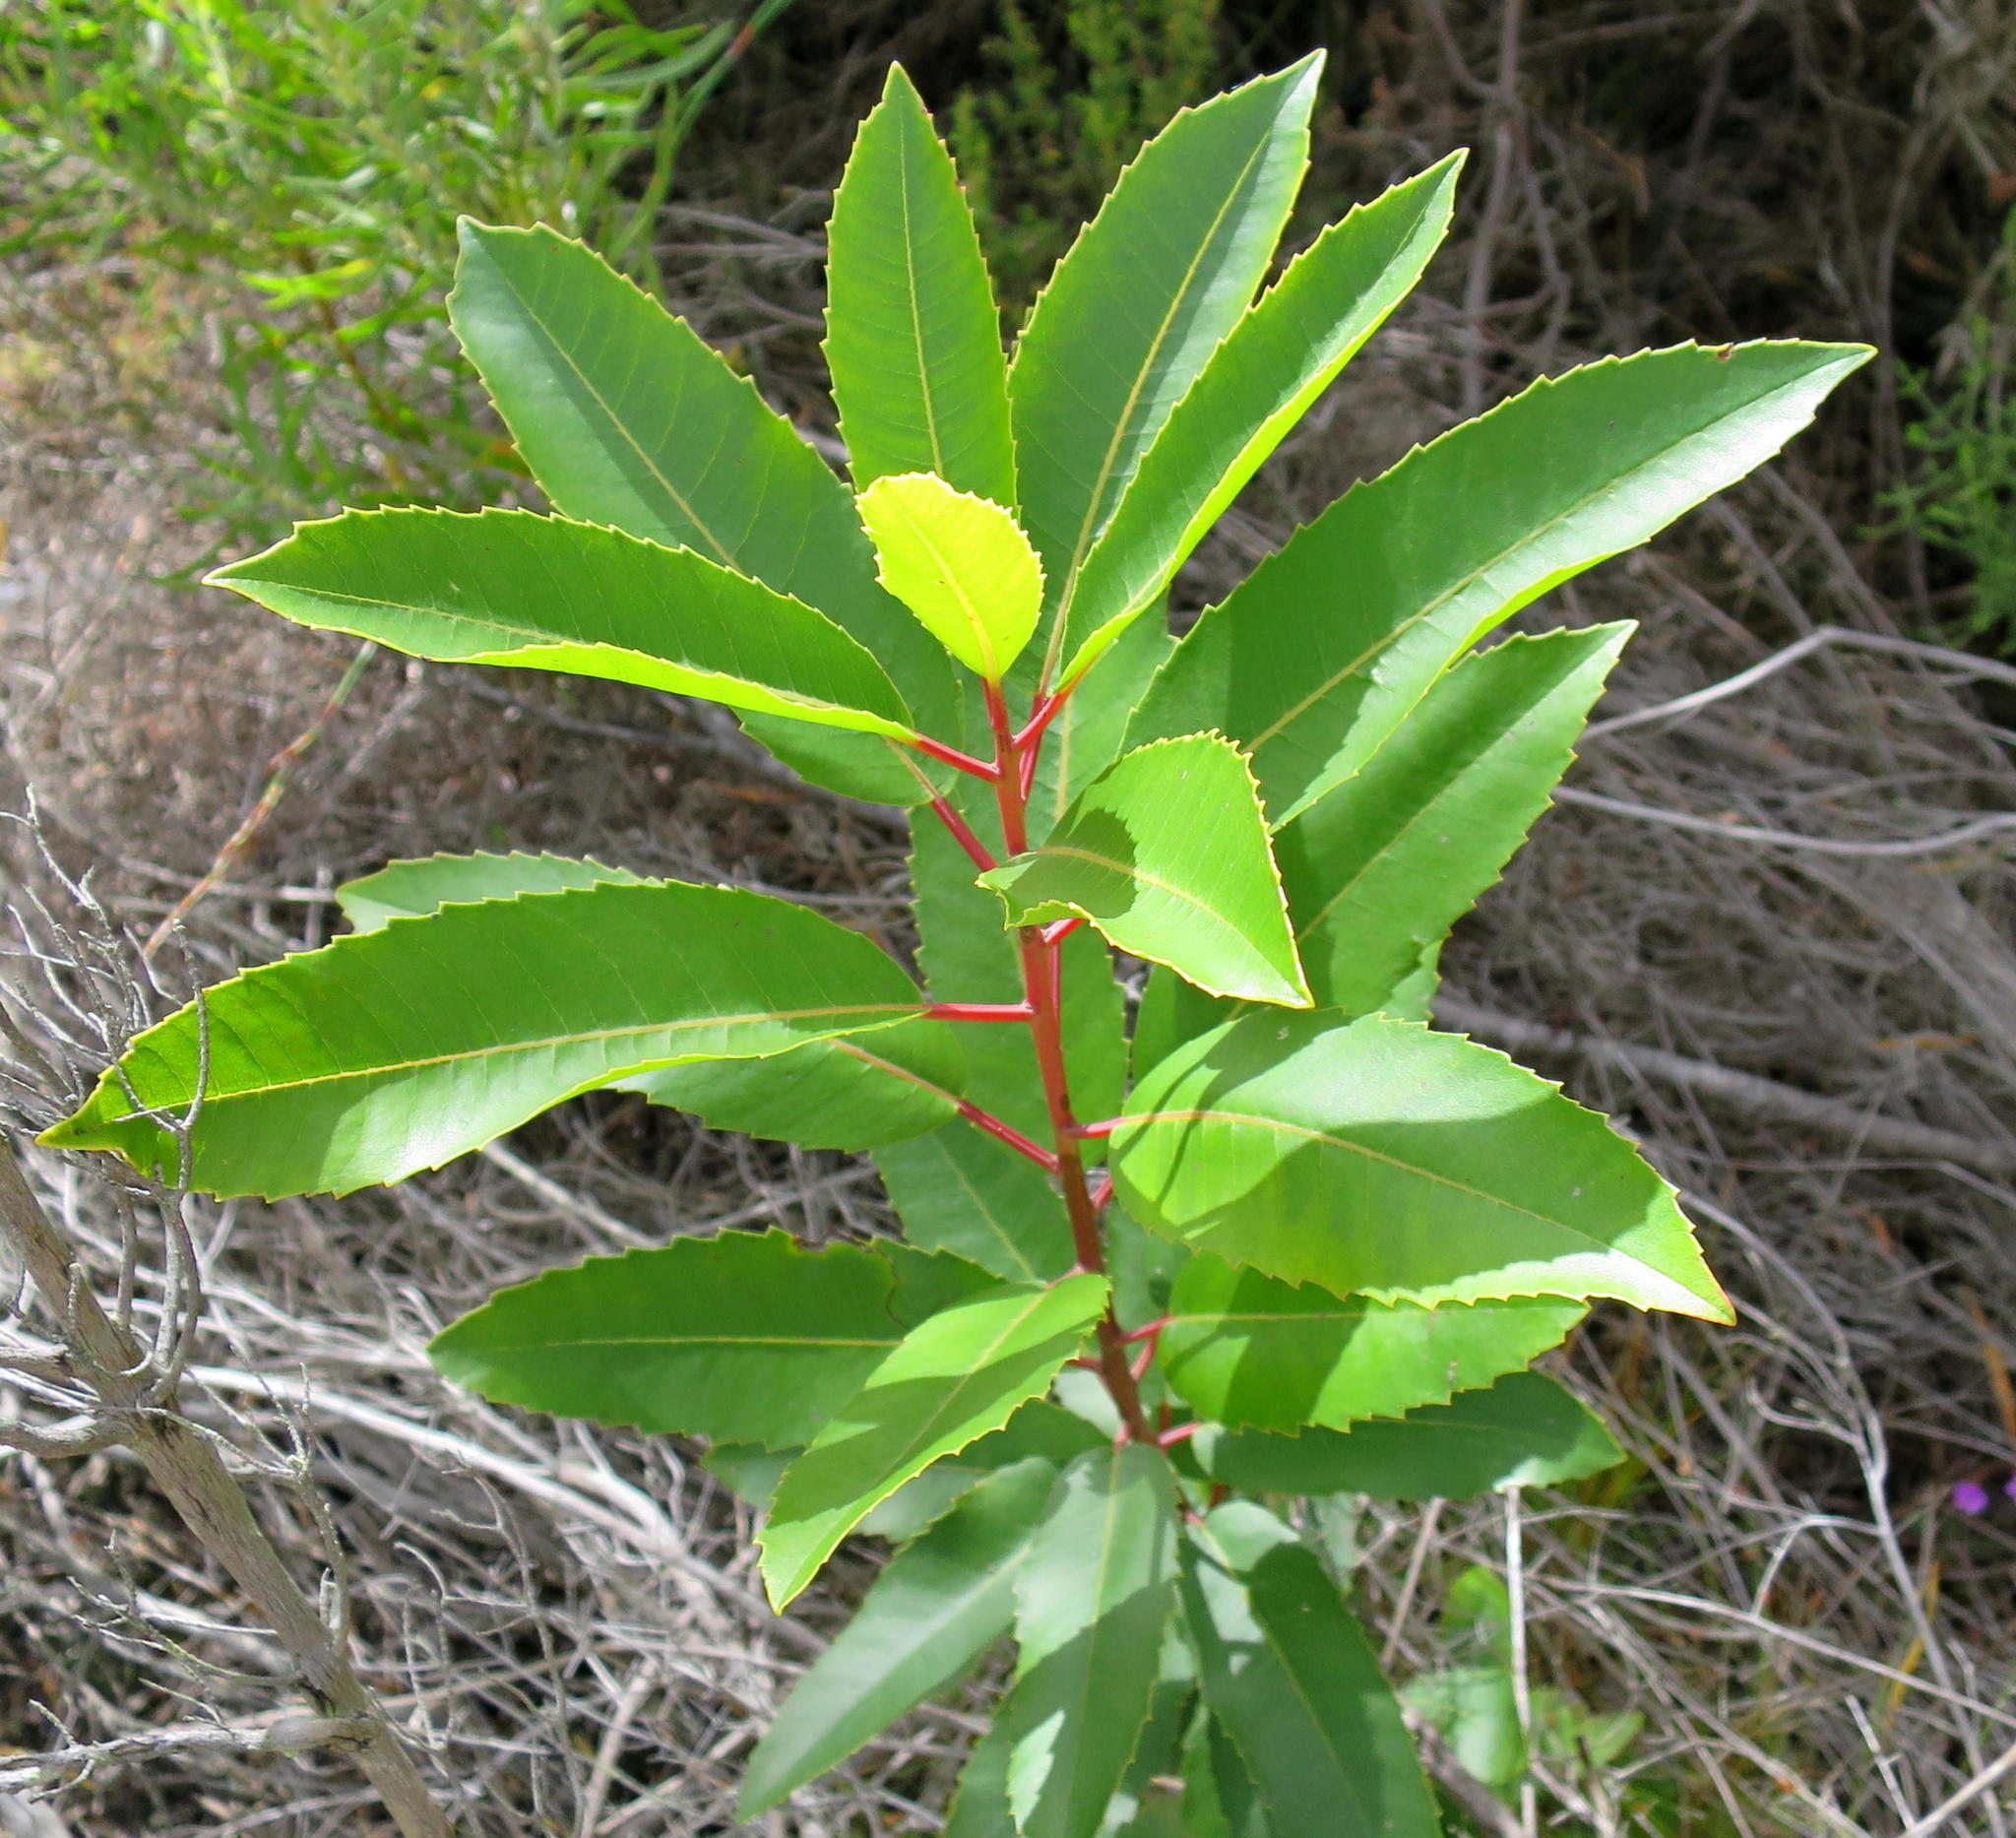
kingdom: Plantae
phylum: Tracheophyta
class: Magnoliopsida
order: Sapindales
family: Anacardiaceae
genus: Laurophyllus
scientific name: Laurophyllus capensis
